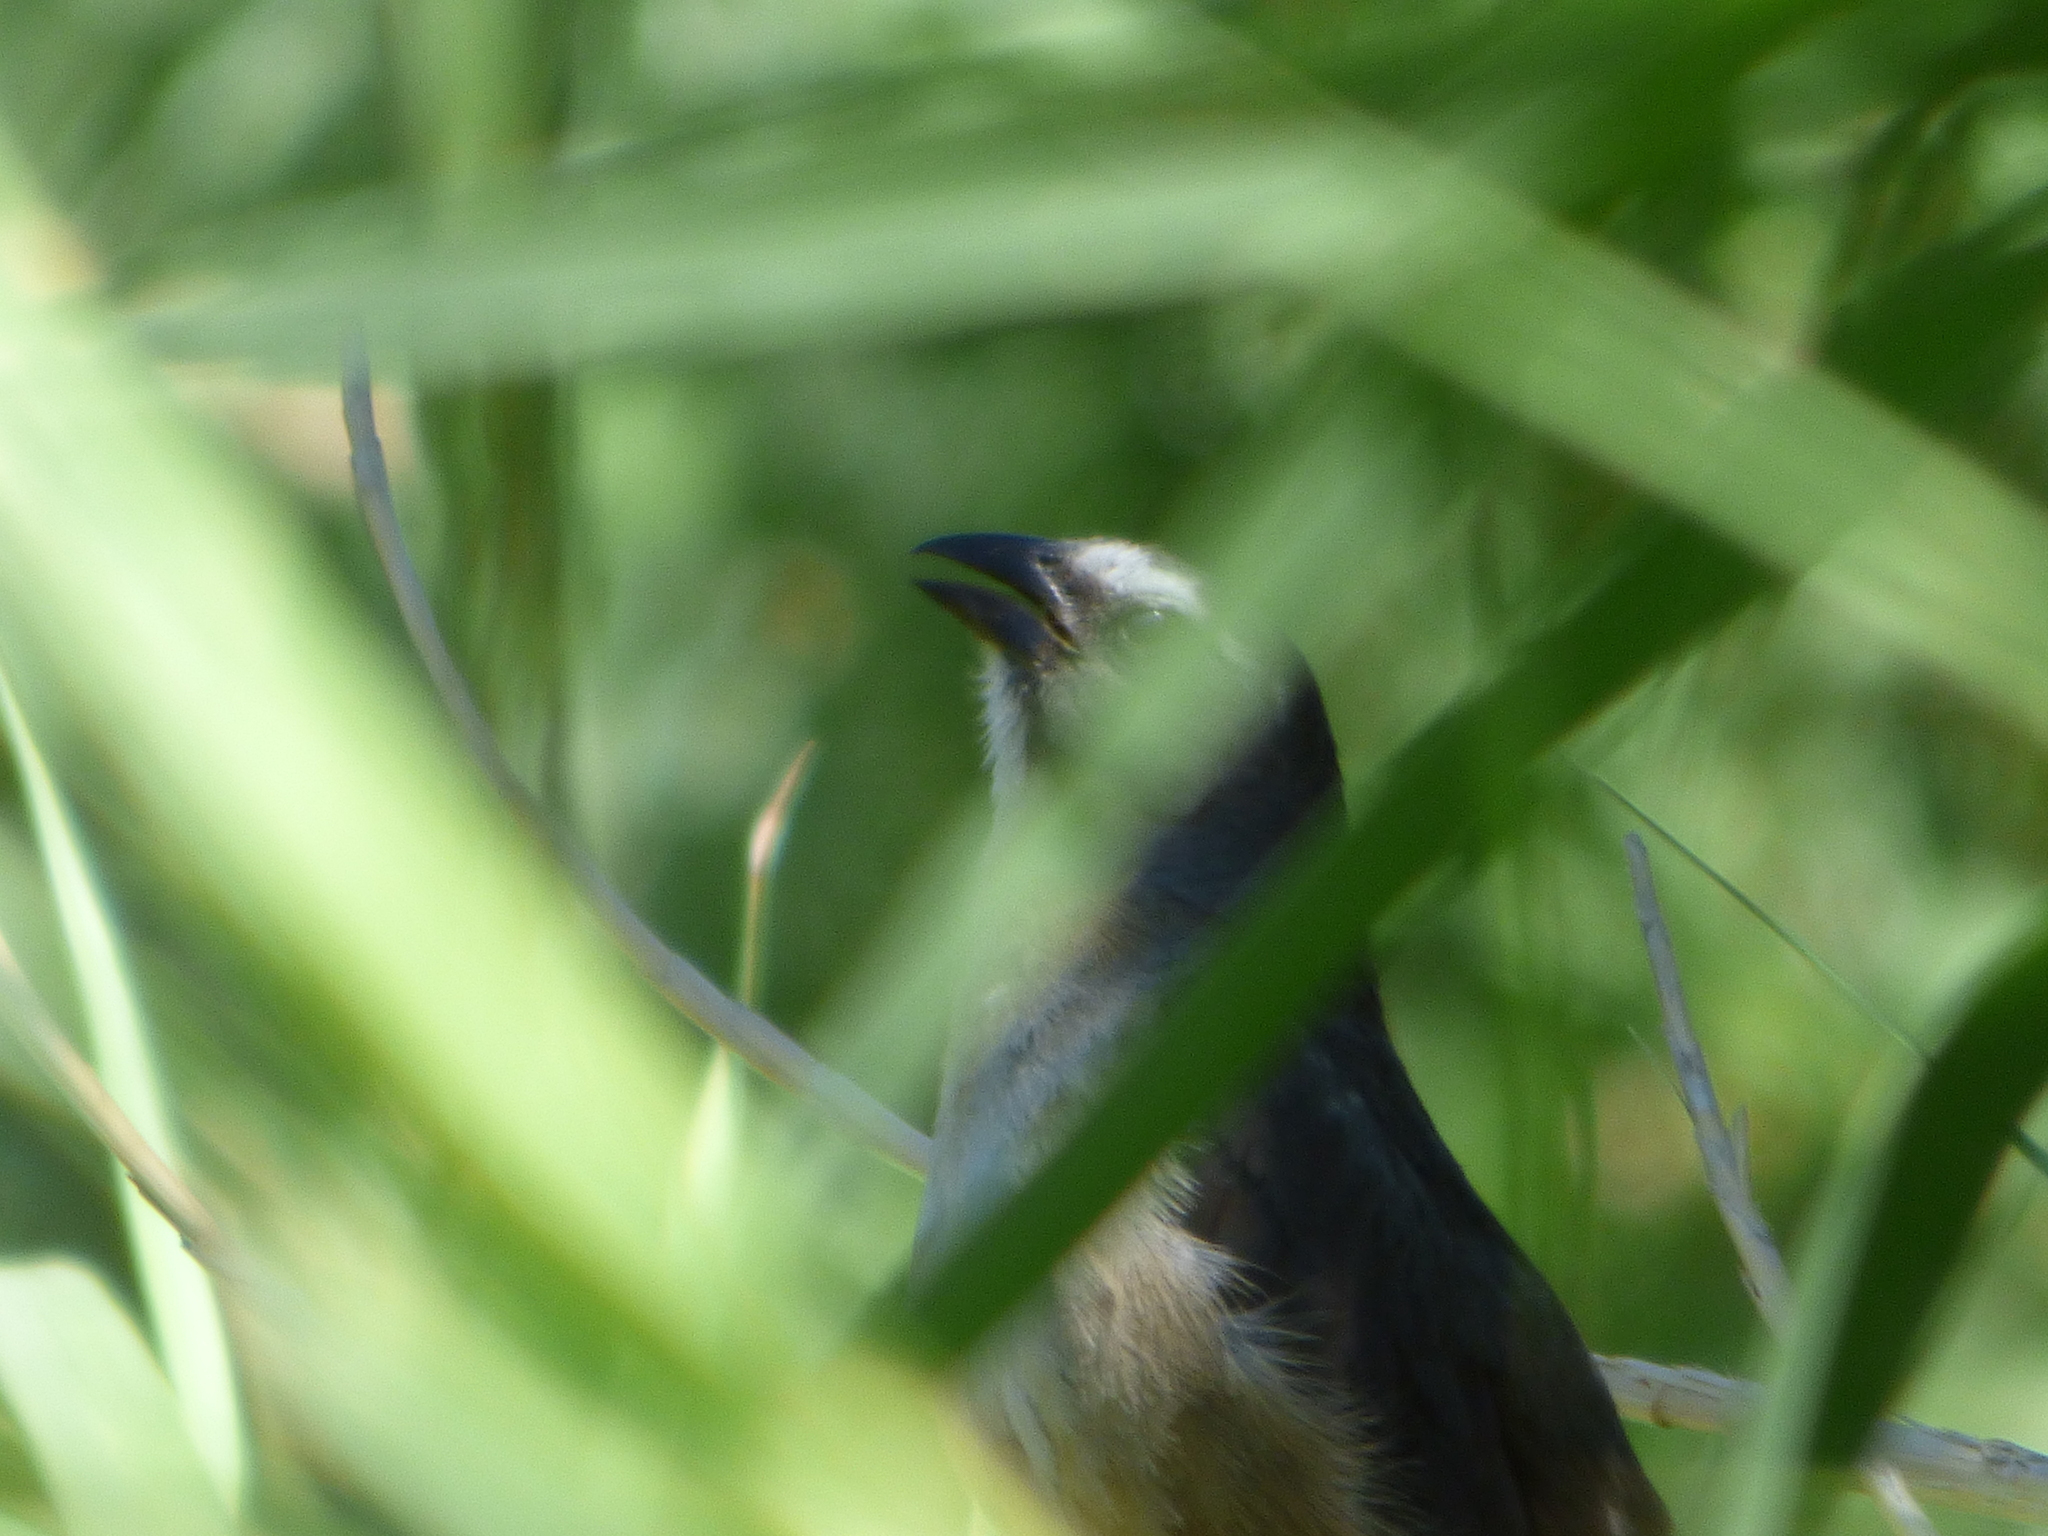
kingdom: Animalia
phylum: Chordata
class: Aves
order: Passeriformes
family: Thraupidae
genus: Saltator
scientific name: Saltator coerulescens
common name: Grayish saltator
